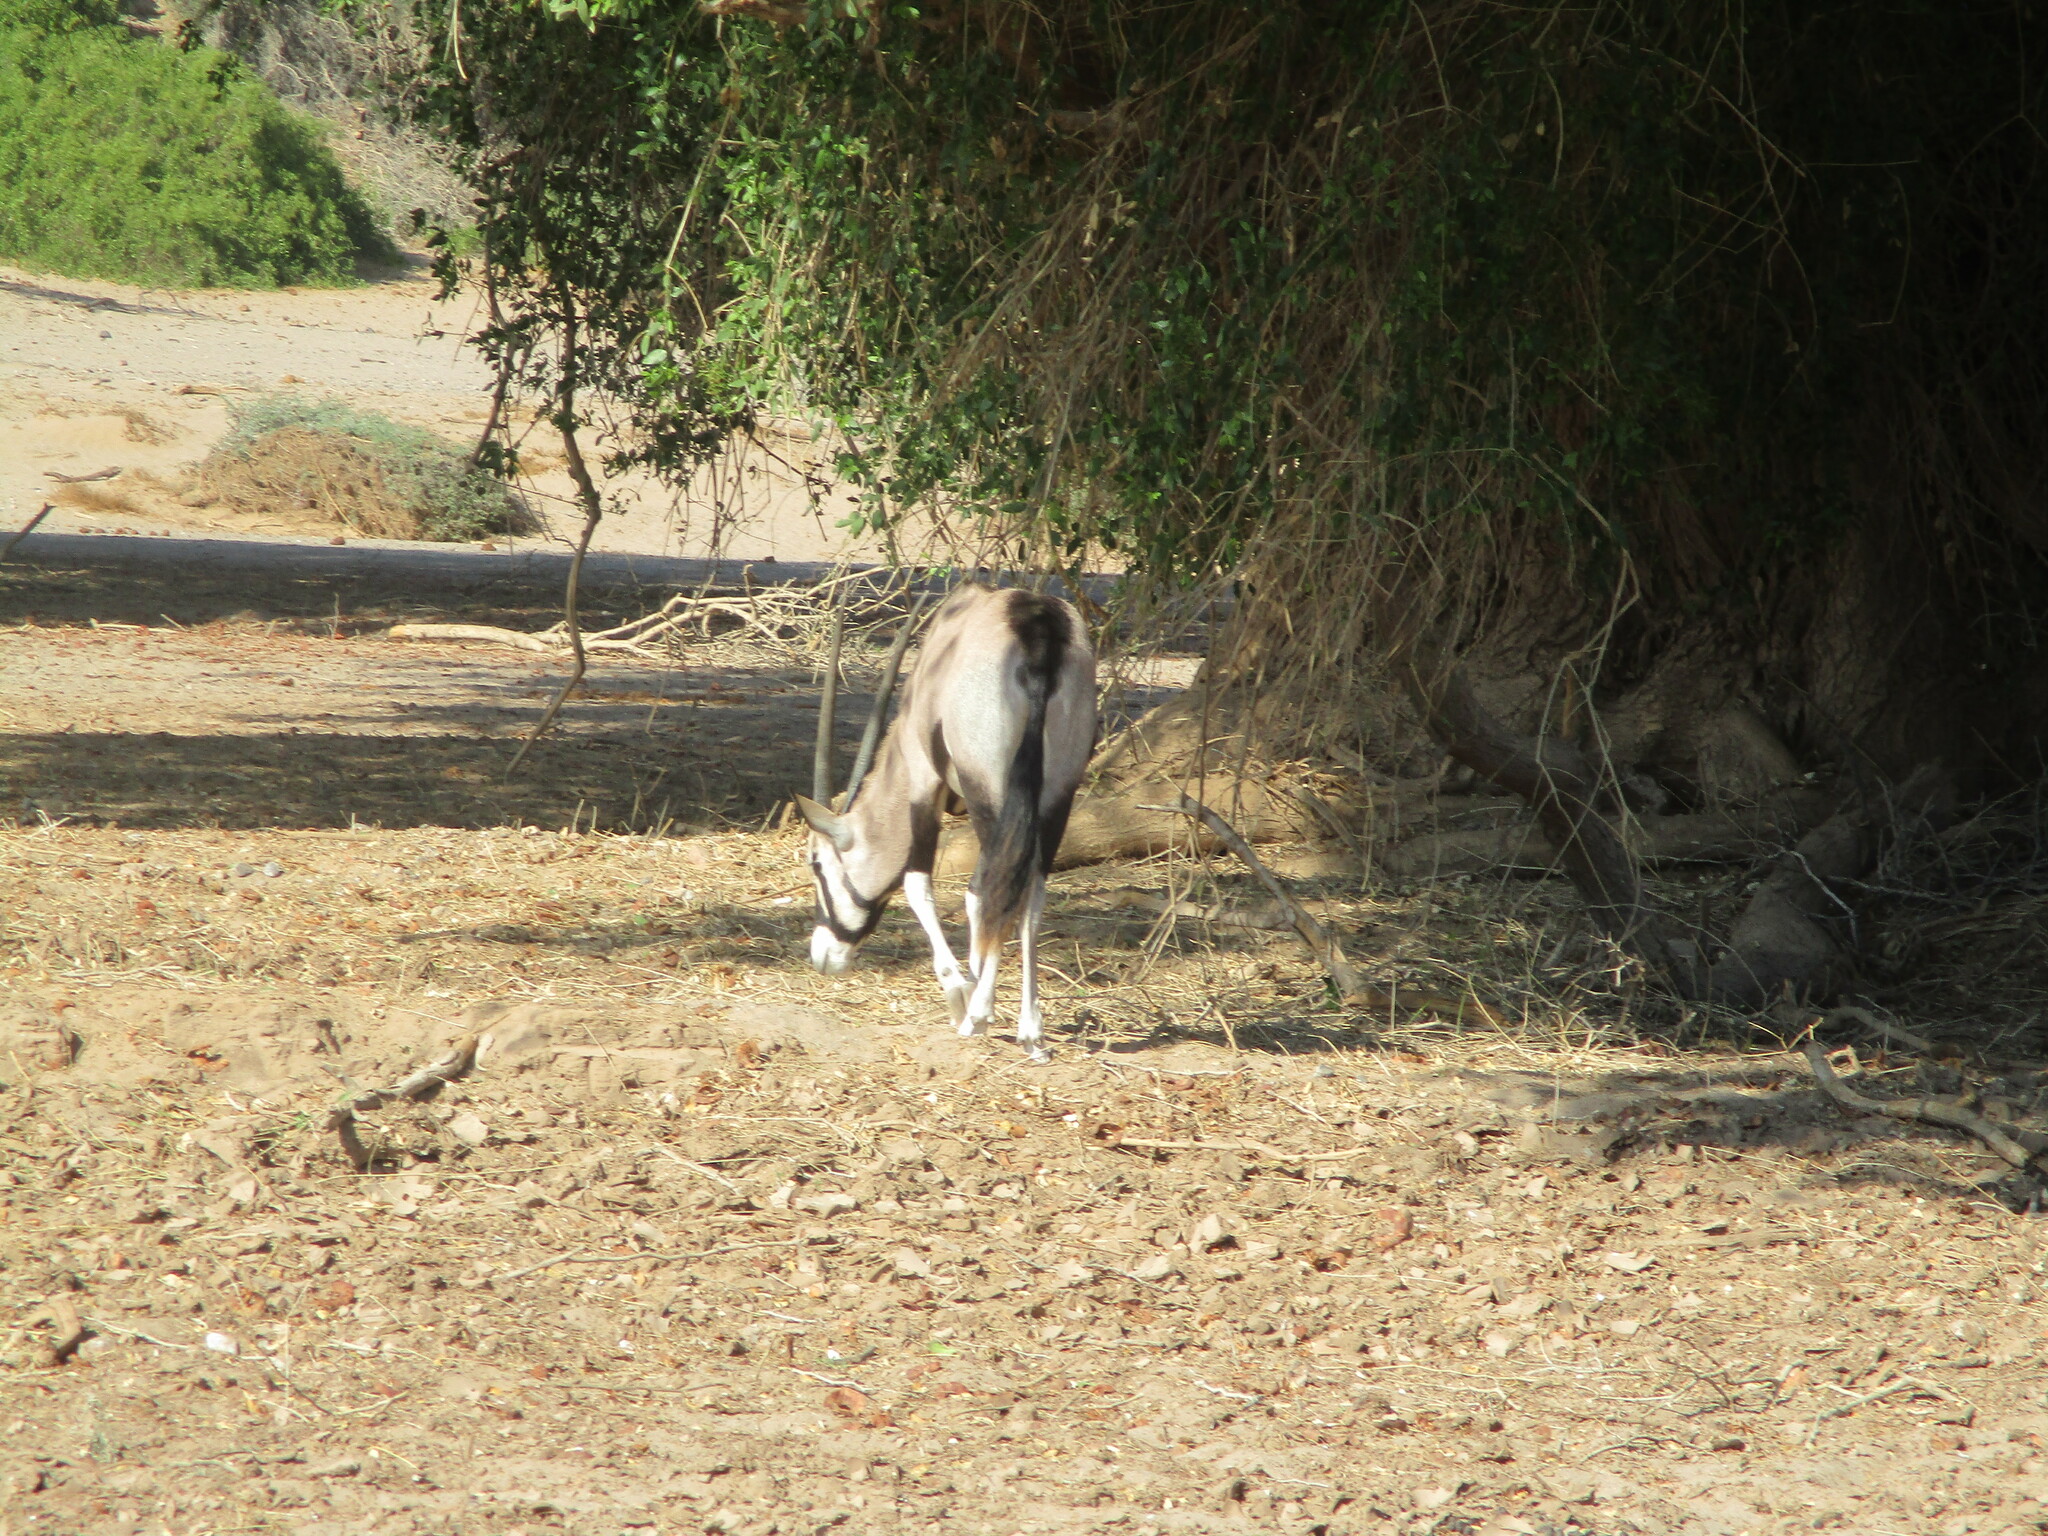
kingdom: Animalia
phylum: Chordata
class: Mammalia
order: Artiodactyla
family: Bovidae
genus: Oryx
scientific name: Oryx gazella
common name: Gemsbok
